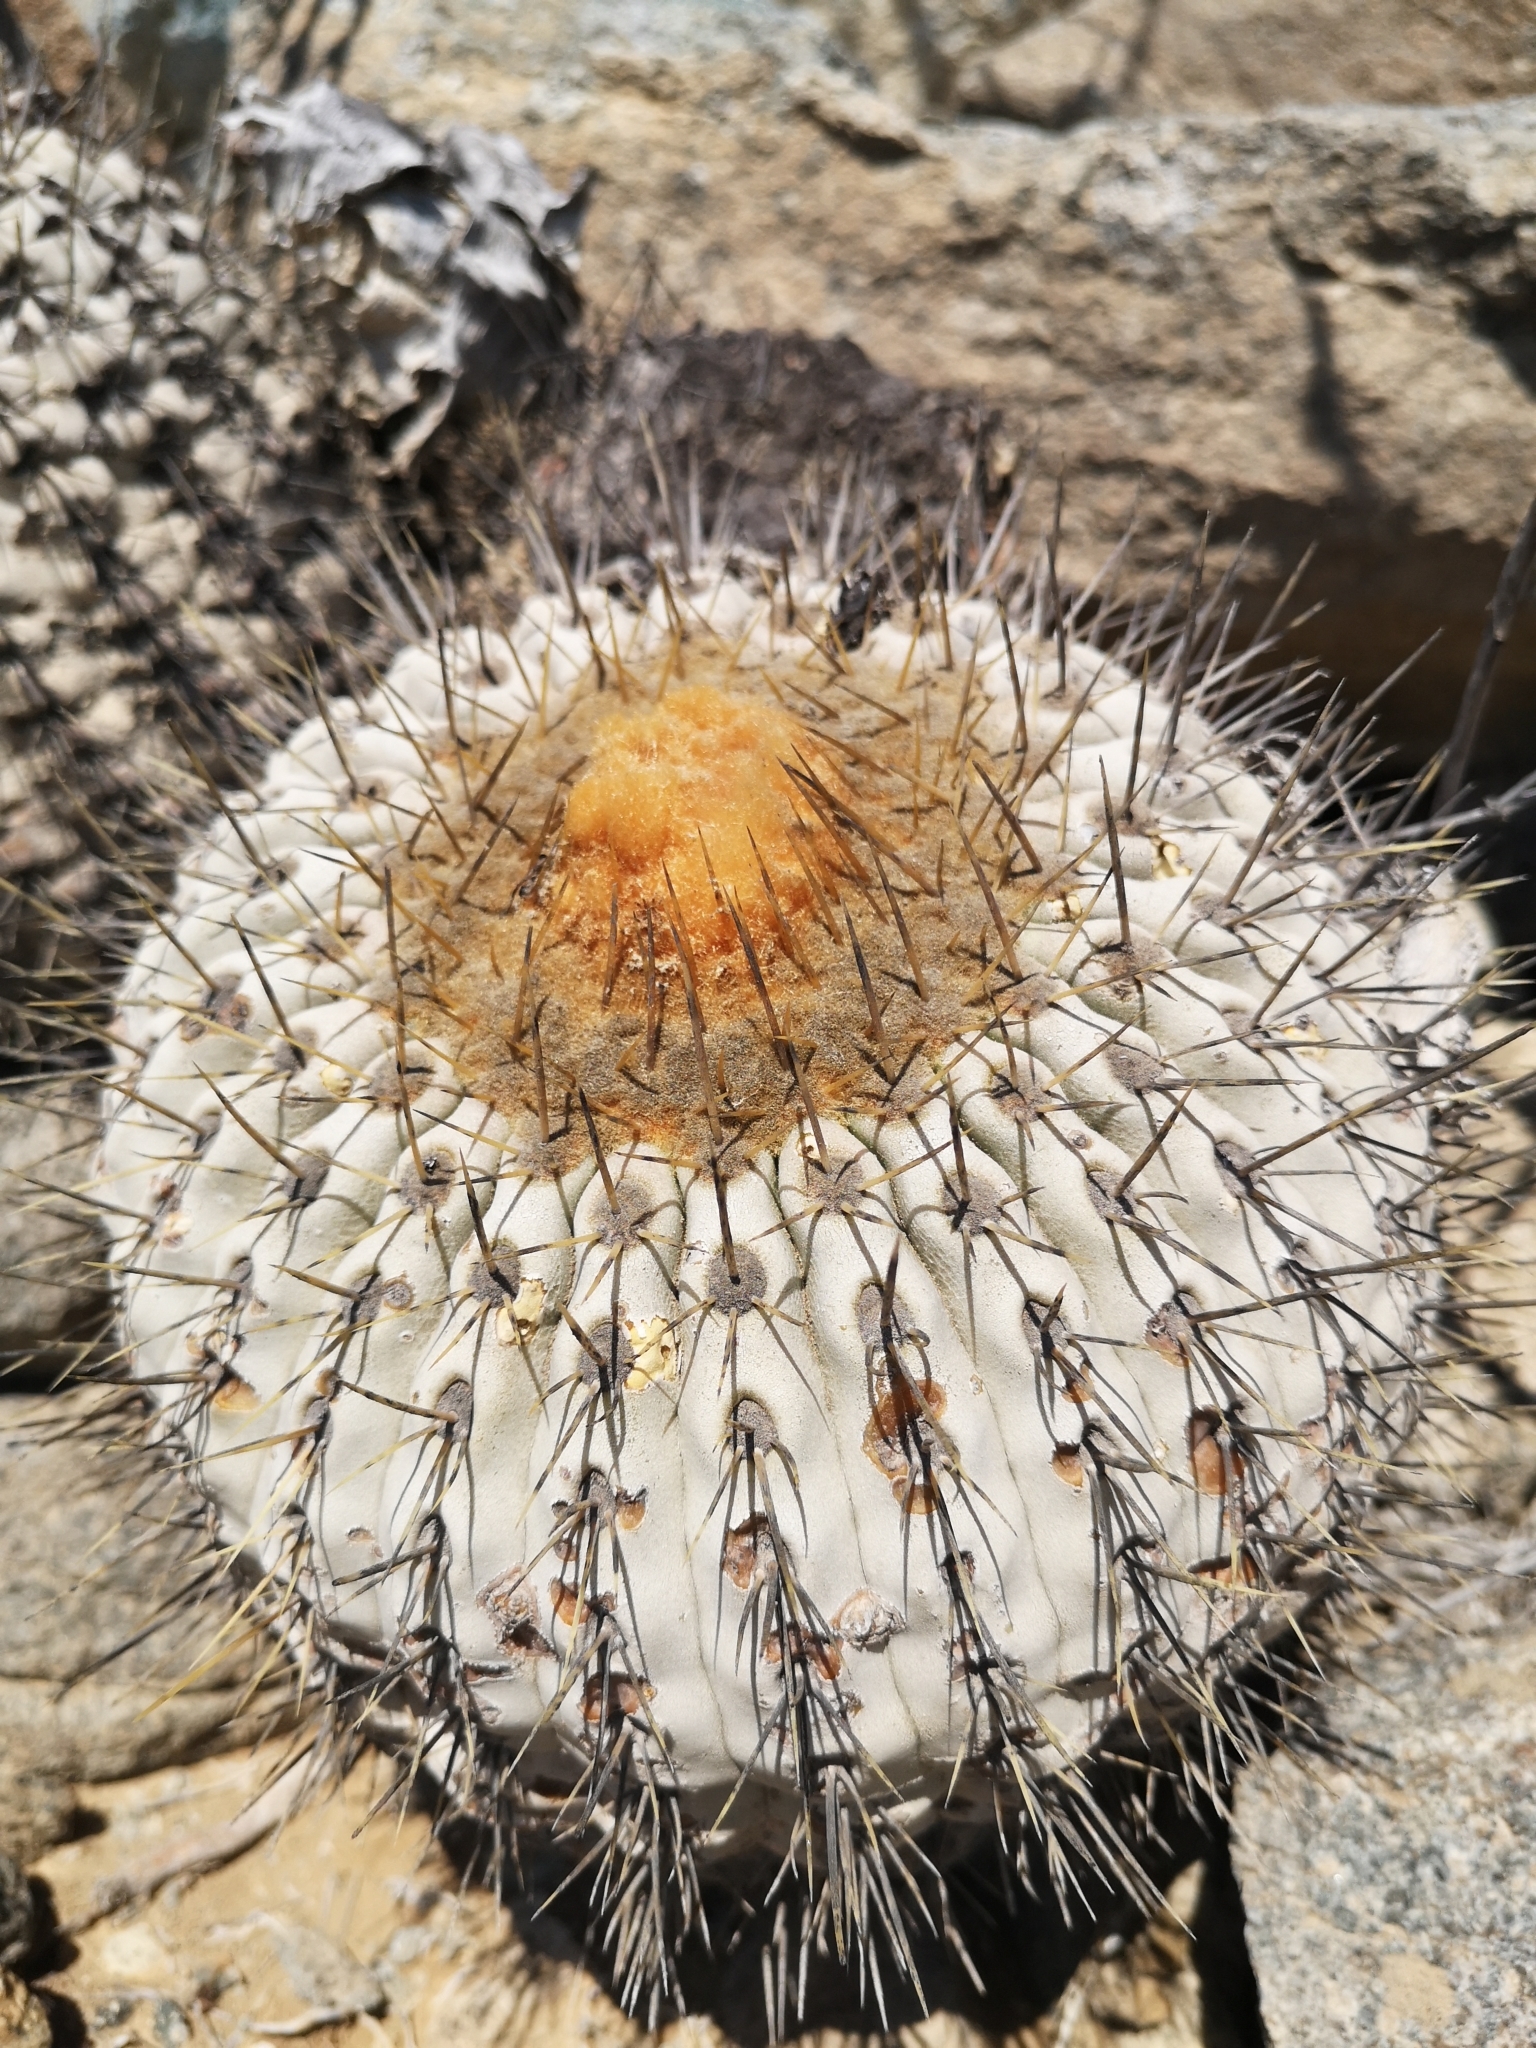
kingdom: Plantae
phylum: Tracheophyta
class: Magnoliopsida
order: Caryophyllales
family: Cactaceae
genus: Copiapoa
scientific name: Copiapoa gigantea
